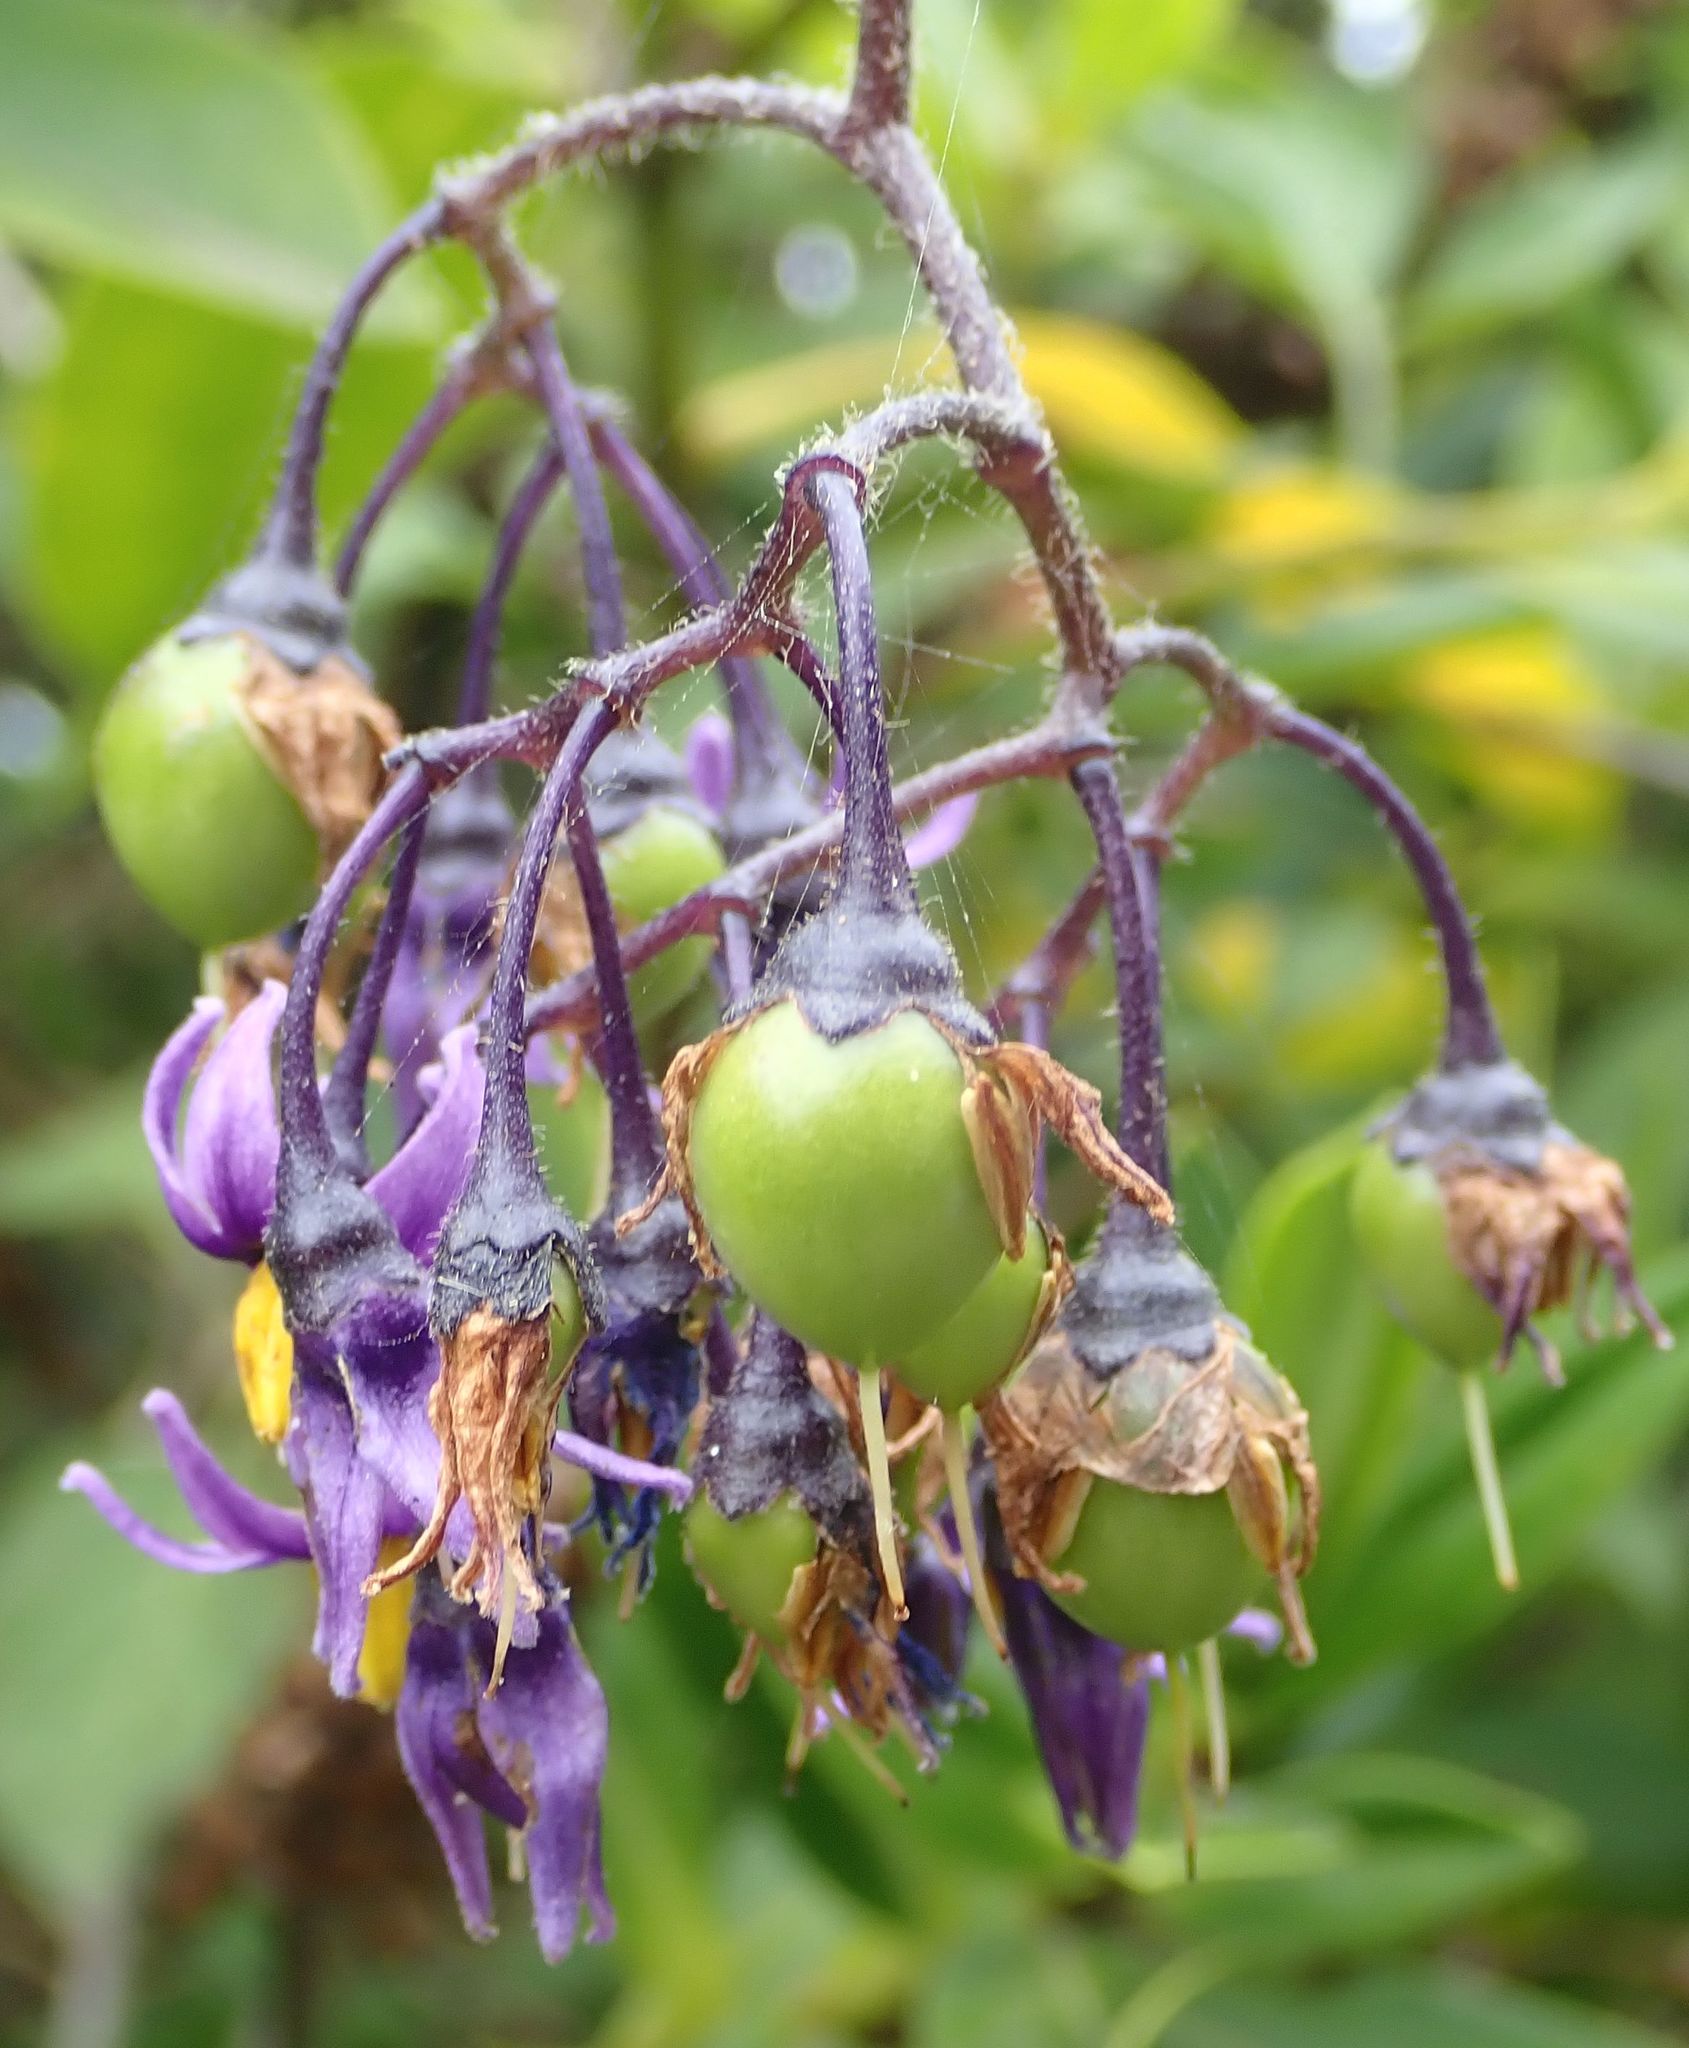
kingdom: Plantae
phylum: Tracheophyta
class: Magnoliopsida
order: Solanales
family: Solanaceae
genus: Solanum
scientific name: Solanum dulcamara
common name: Climbing nightshade
